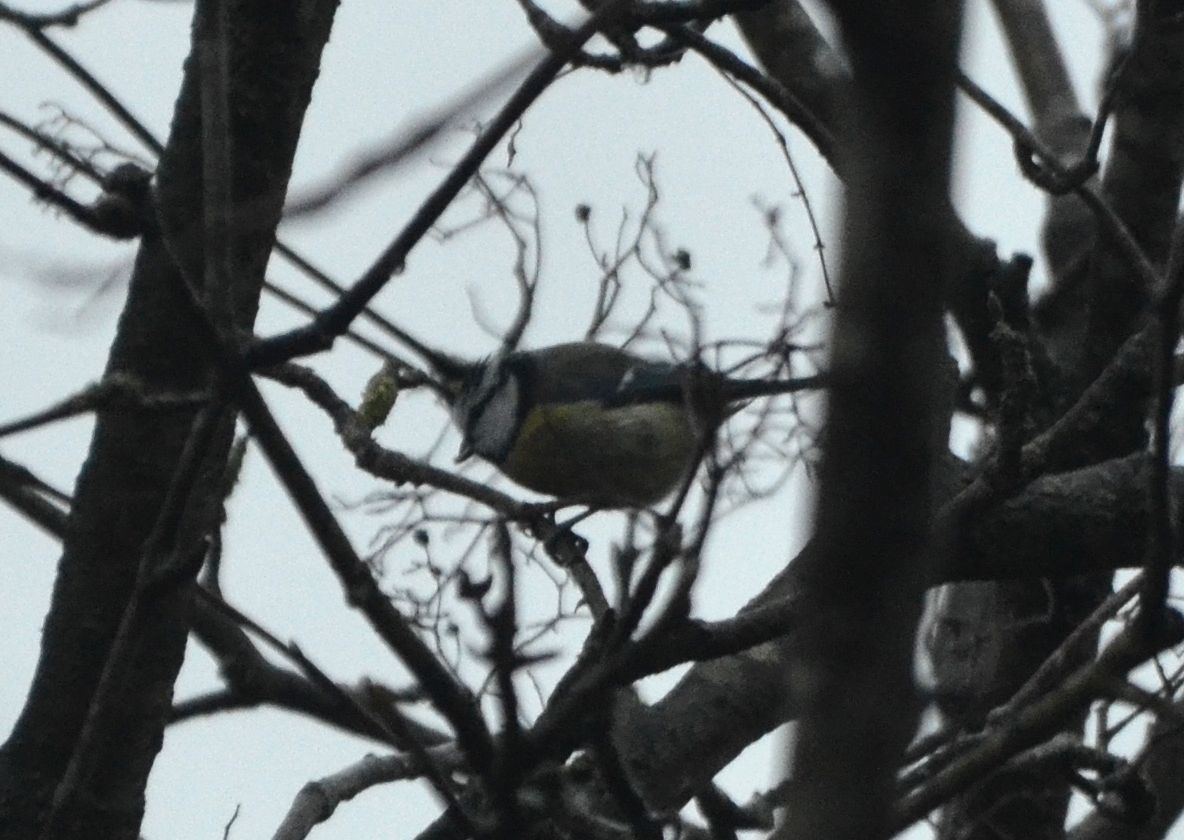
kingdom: Animalia
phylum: Chordata
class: Aves
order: Passeriformes
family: Paridae
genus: Cyanistes
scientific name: Cyanistes caeruleus
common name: Eurasian blue tit
